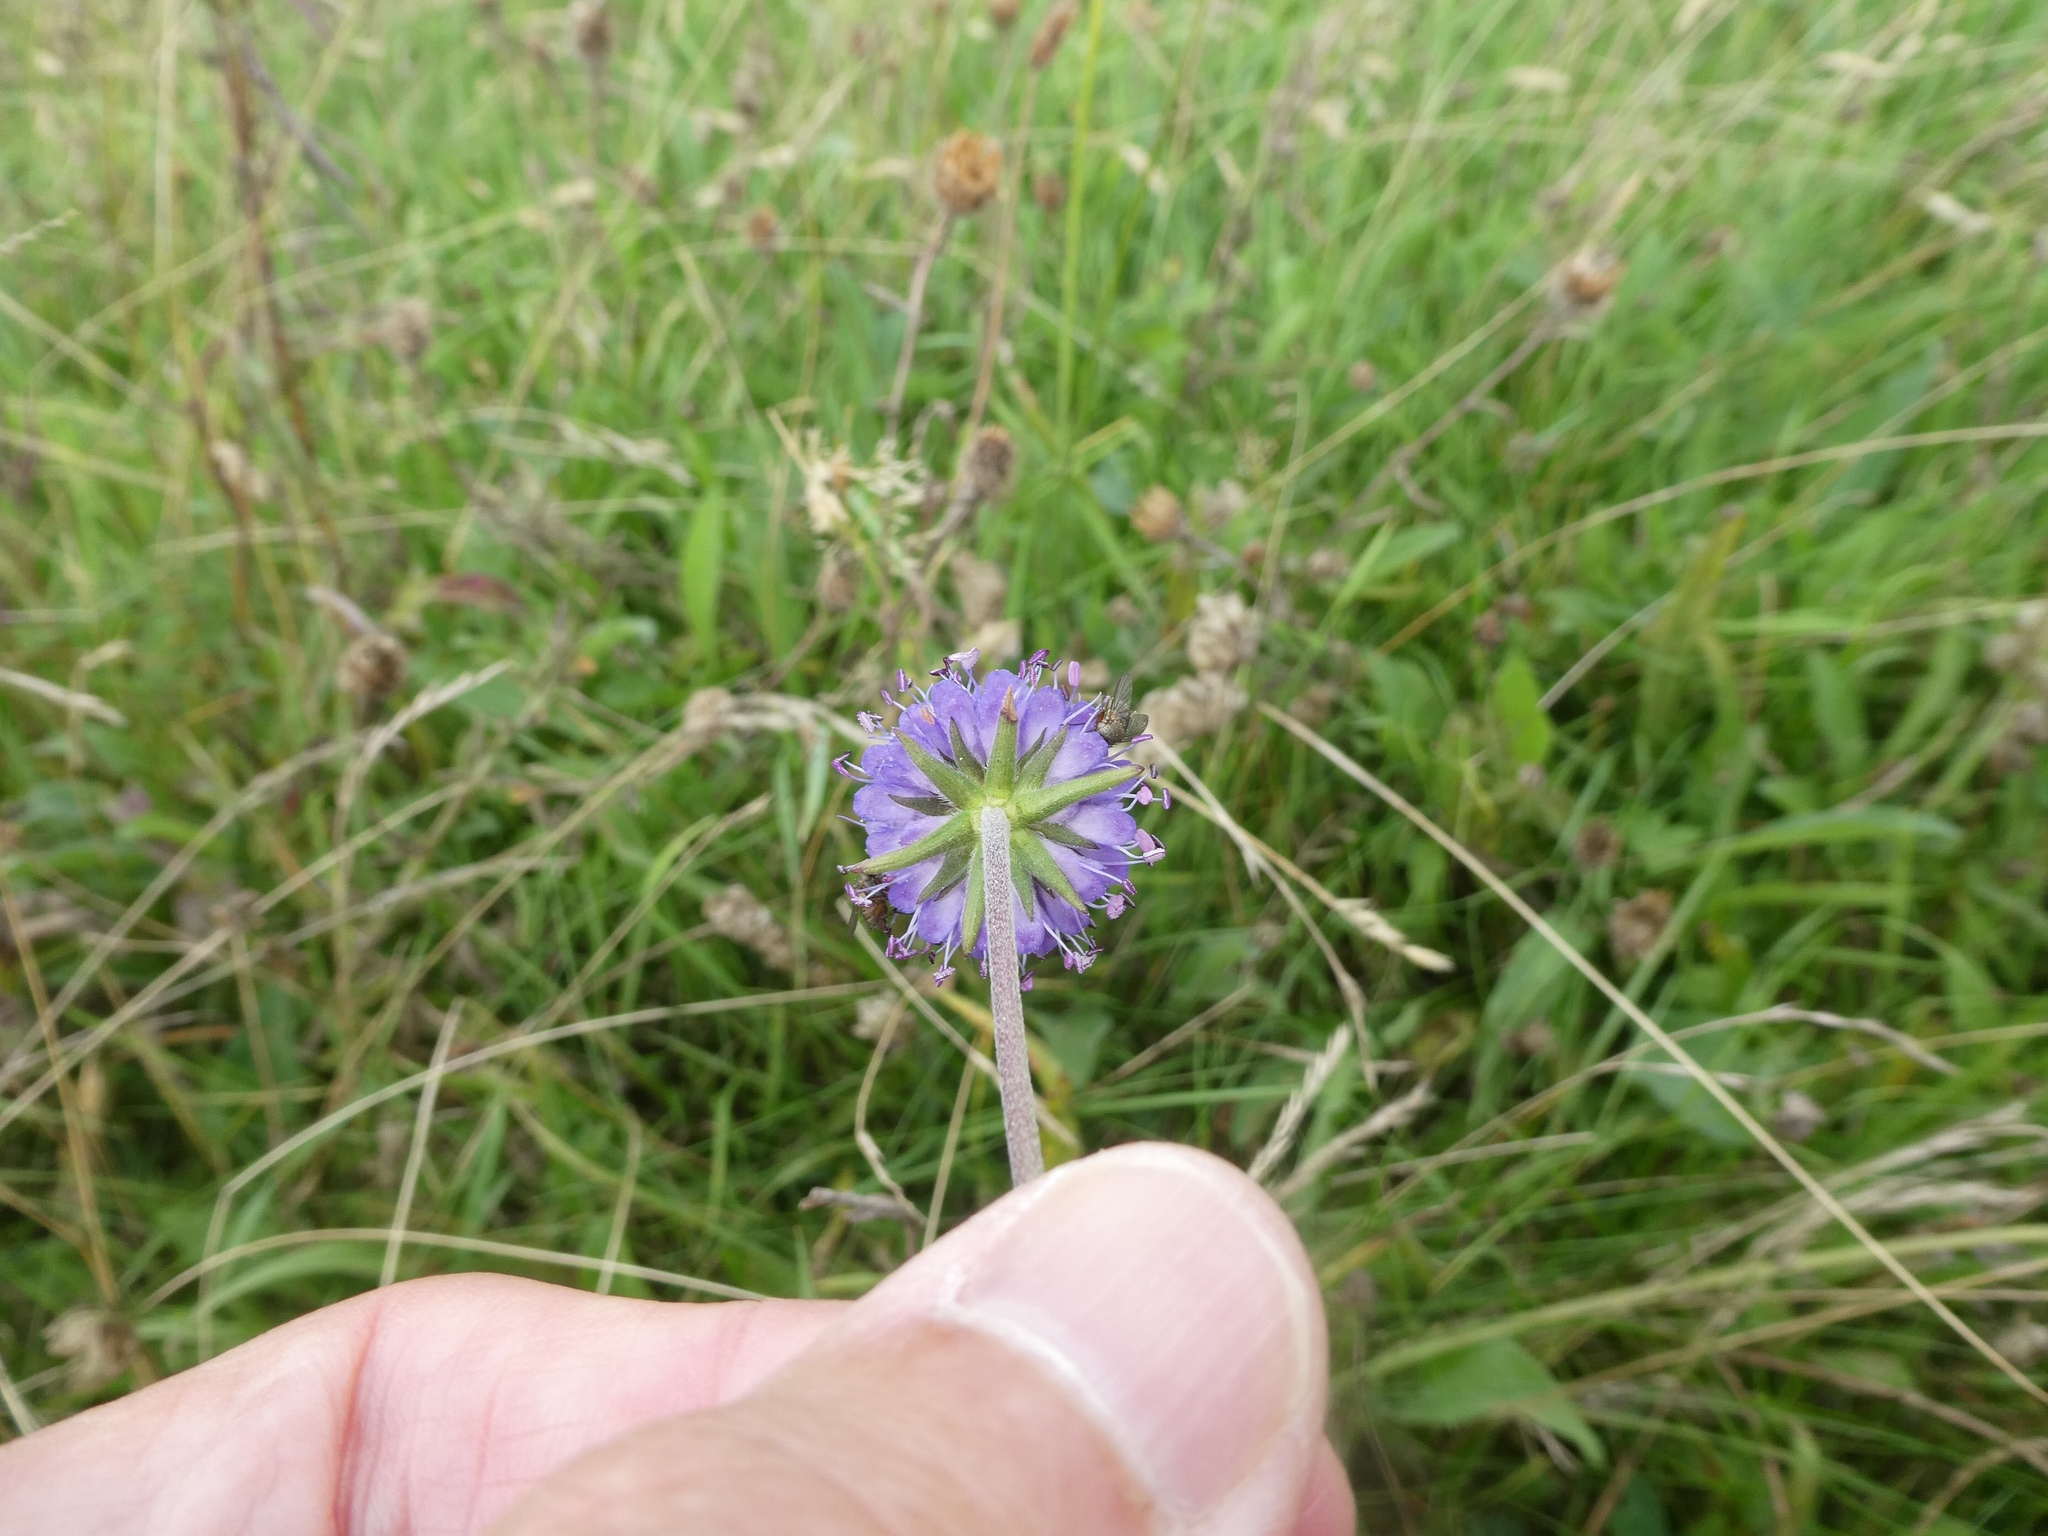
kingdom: Plantae
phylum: Tracheophyta
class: Magnoliopsida
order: Dipsacales
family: Caprifoliaceae
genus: Succisa
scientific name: Succisa pratensis
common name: Devil's-bit
